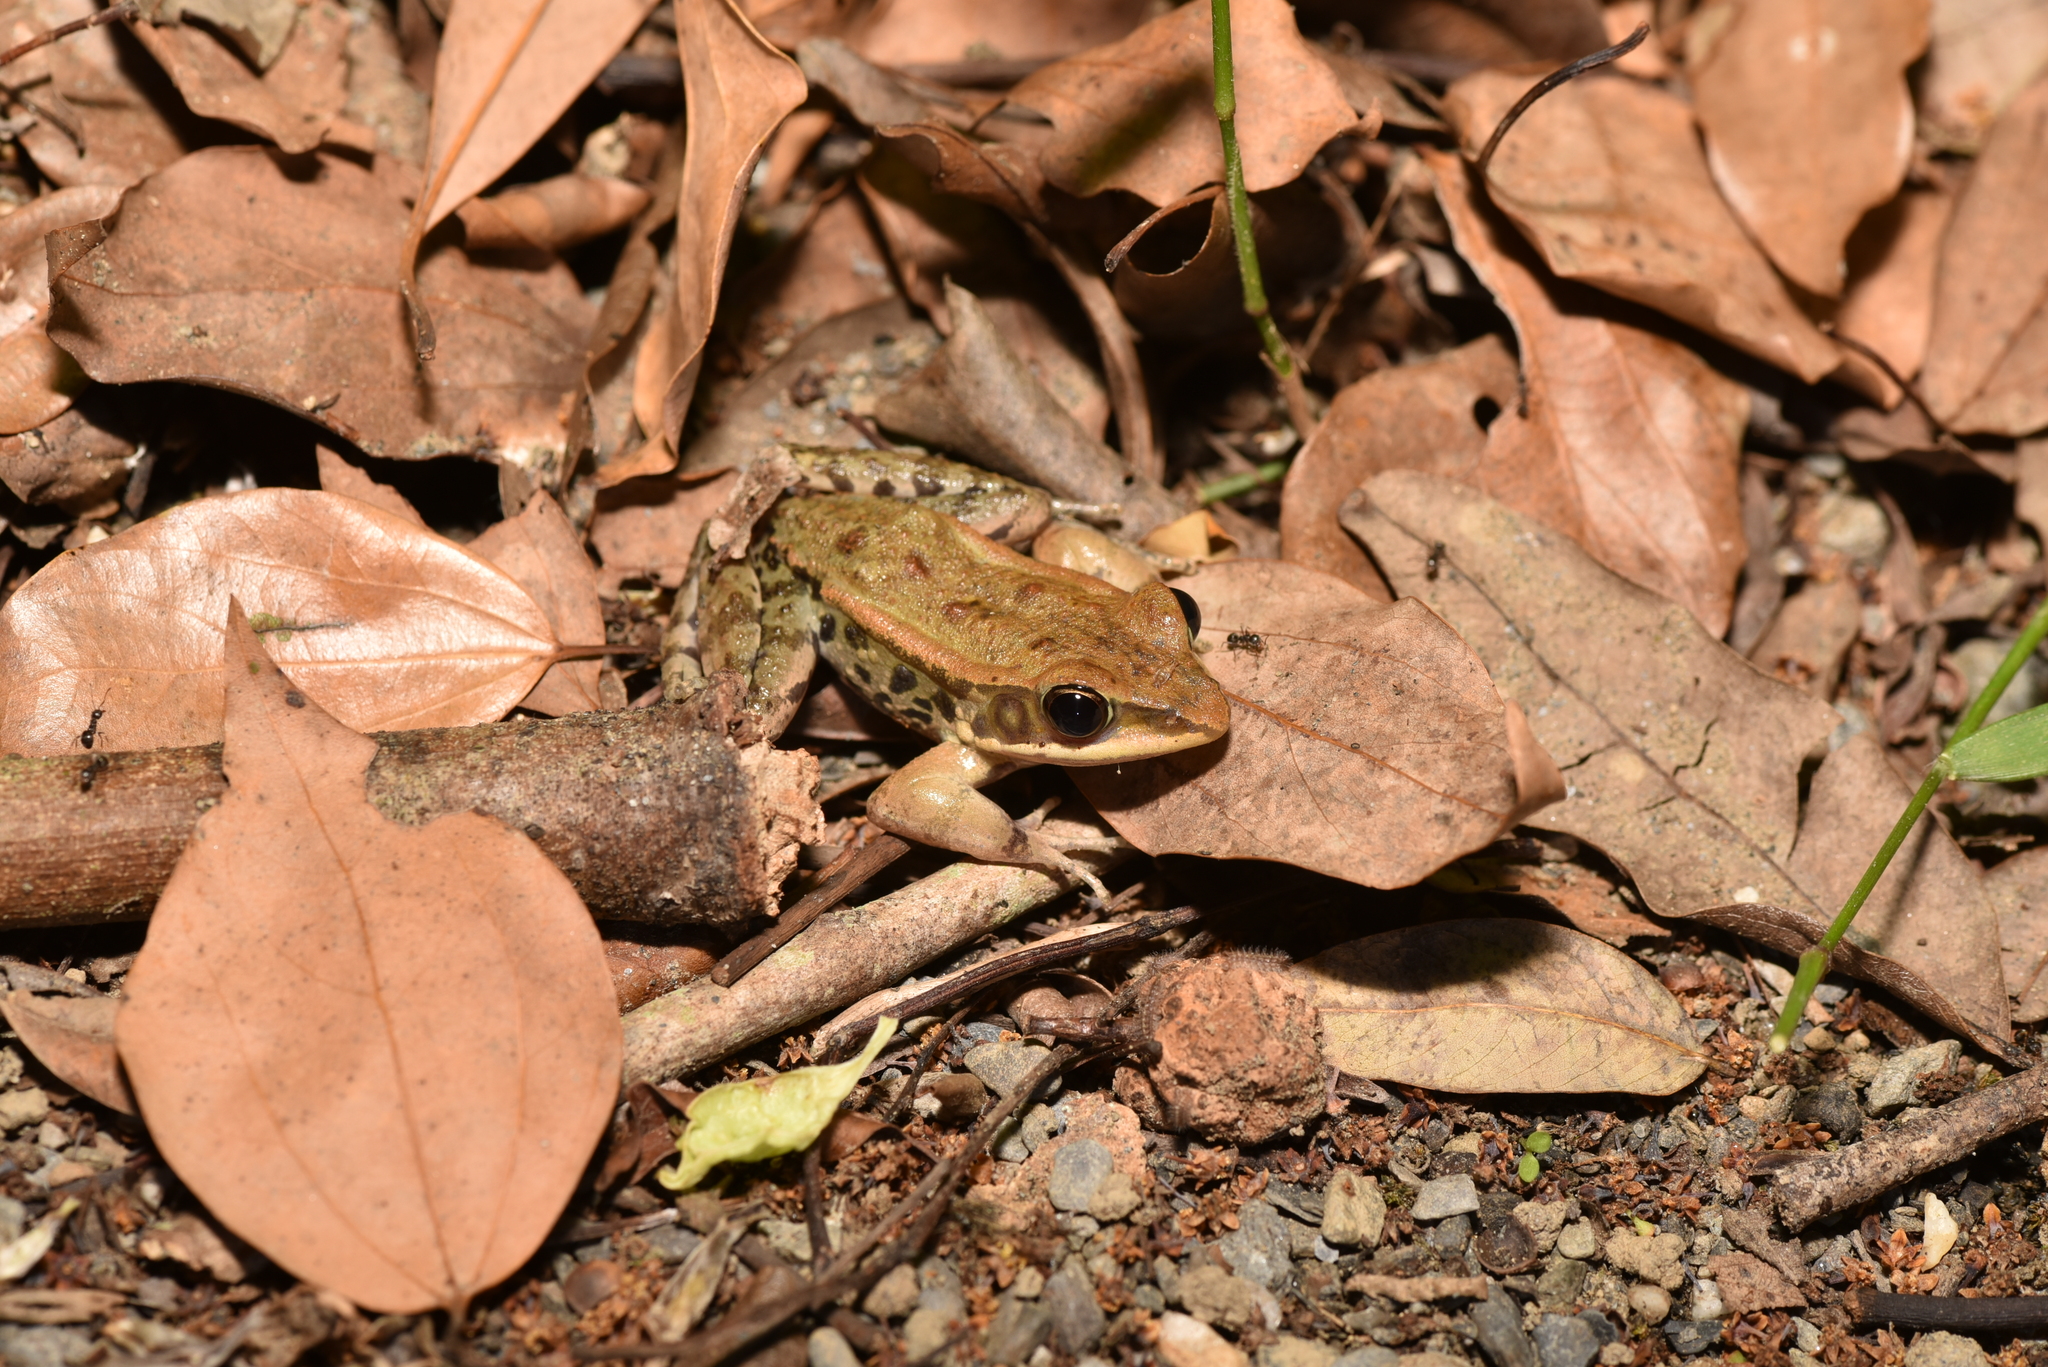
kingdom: Animalia
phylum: Chordata
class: Amphibia
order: Anura
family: Ranidae
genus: Hylarana
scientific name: Hylarana latouchii
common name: Broad-folded frog
